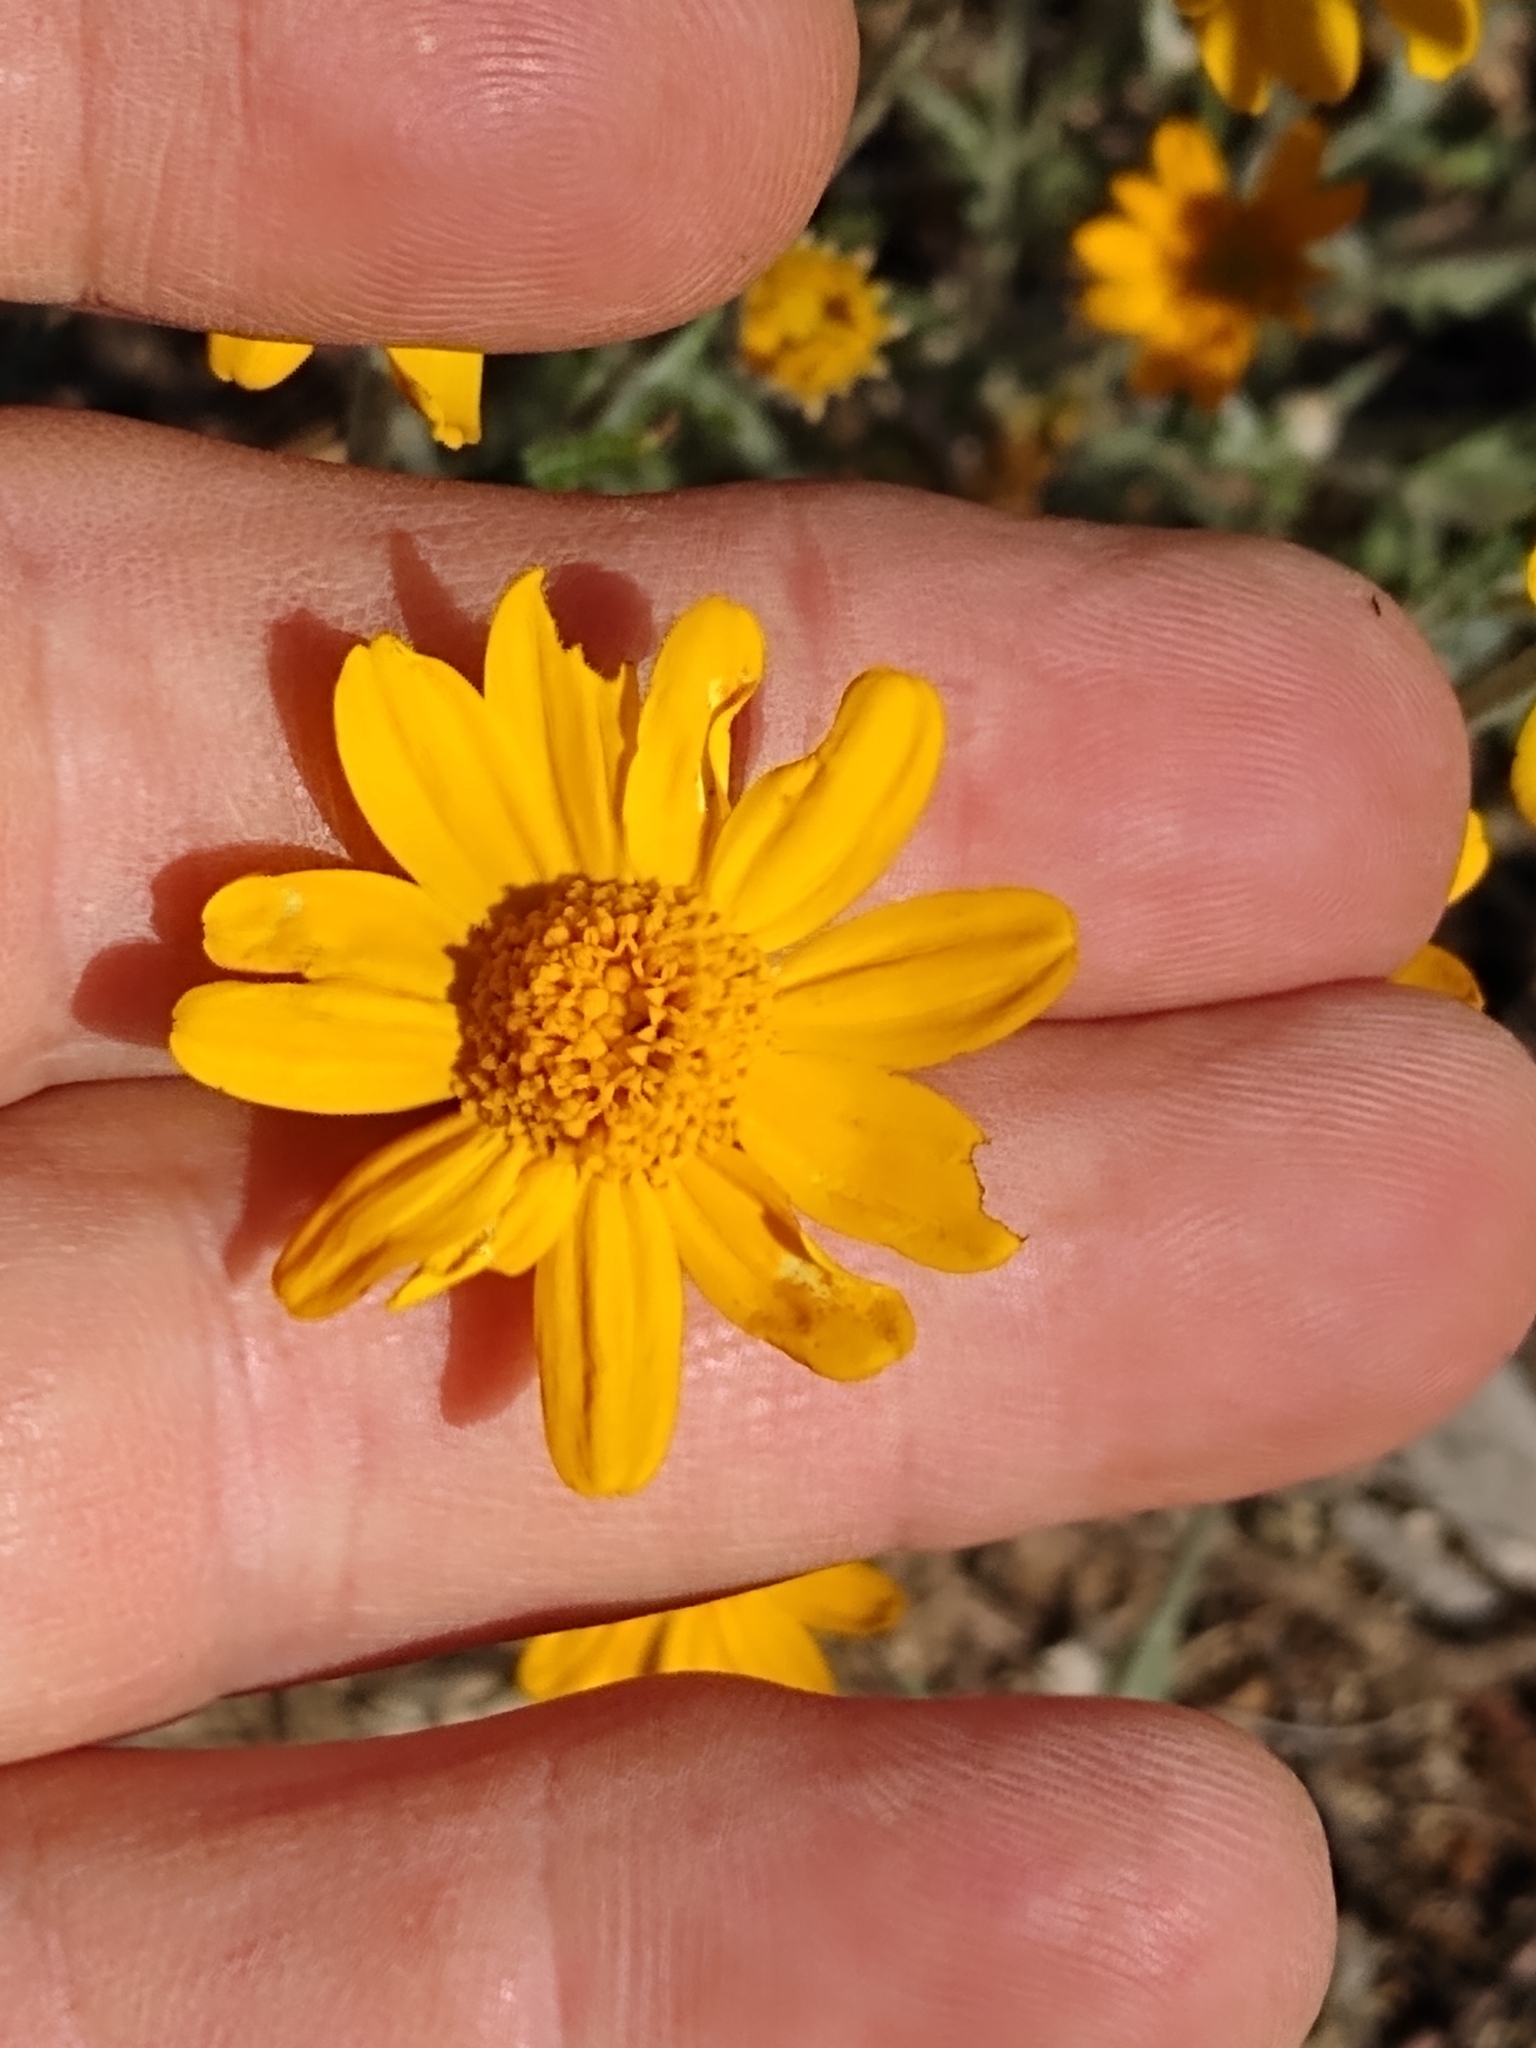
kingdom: Plantae
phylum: Tracheophyta
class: Magnoliopsida
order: Asterales
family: Asteraceae
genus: Eriophyllum
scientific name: Eriophyllum lanatum
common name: Common woolly-sunflower
